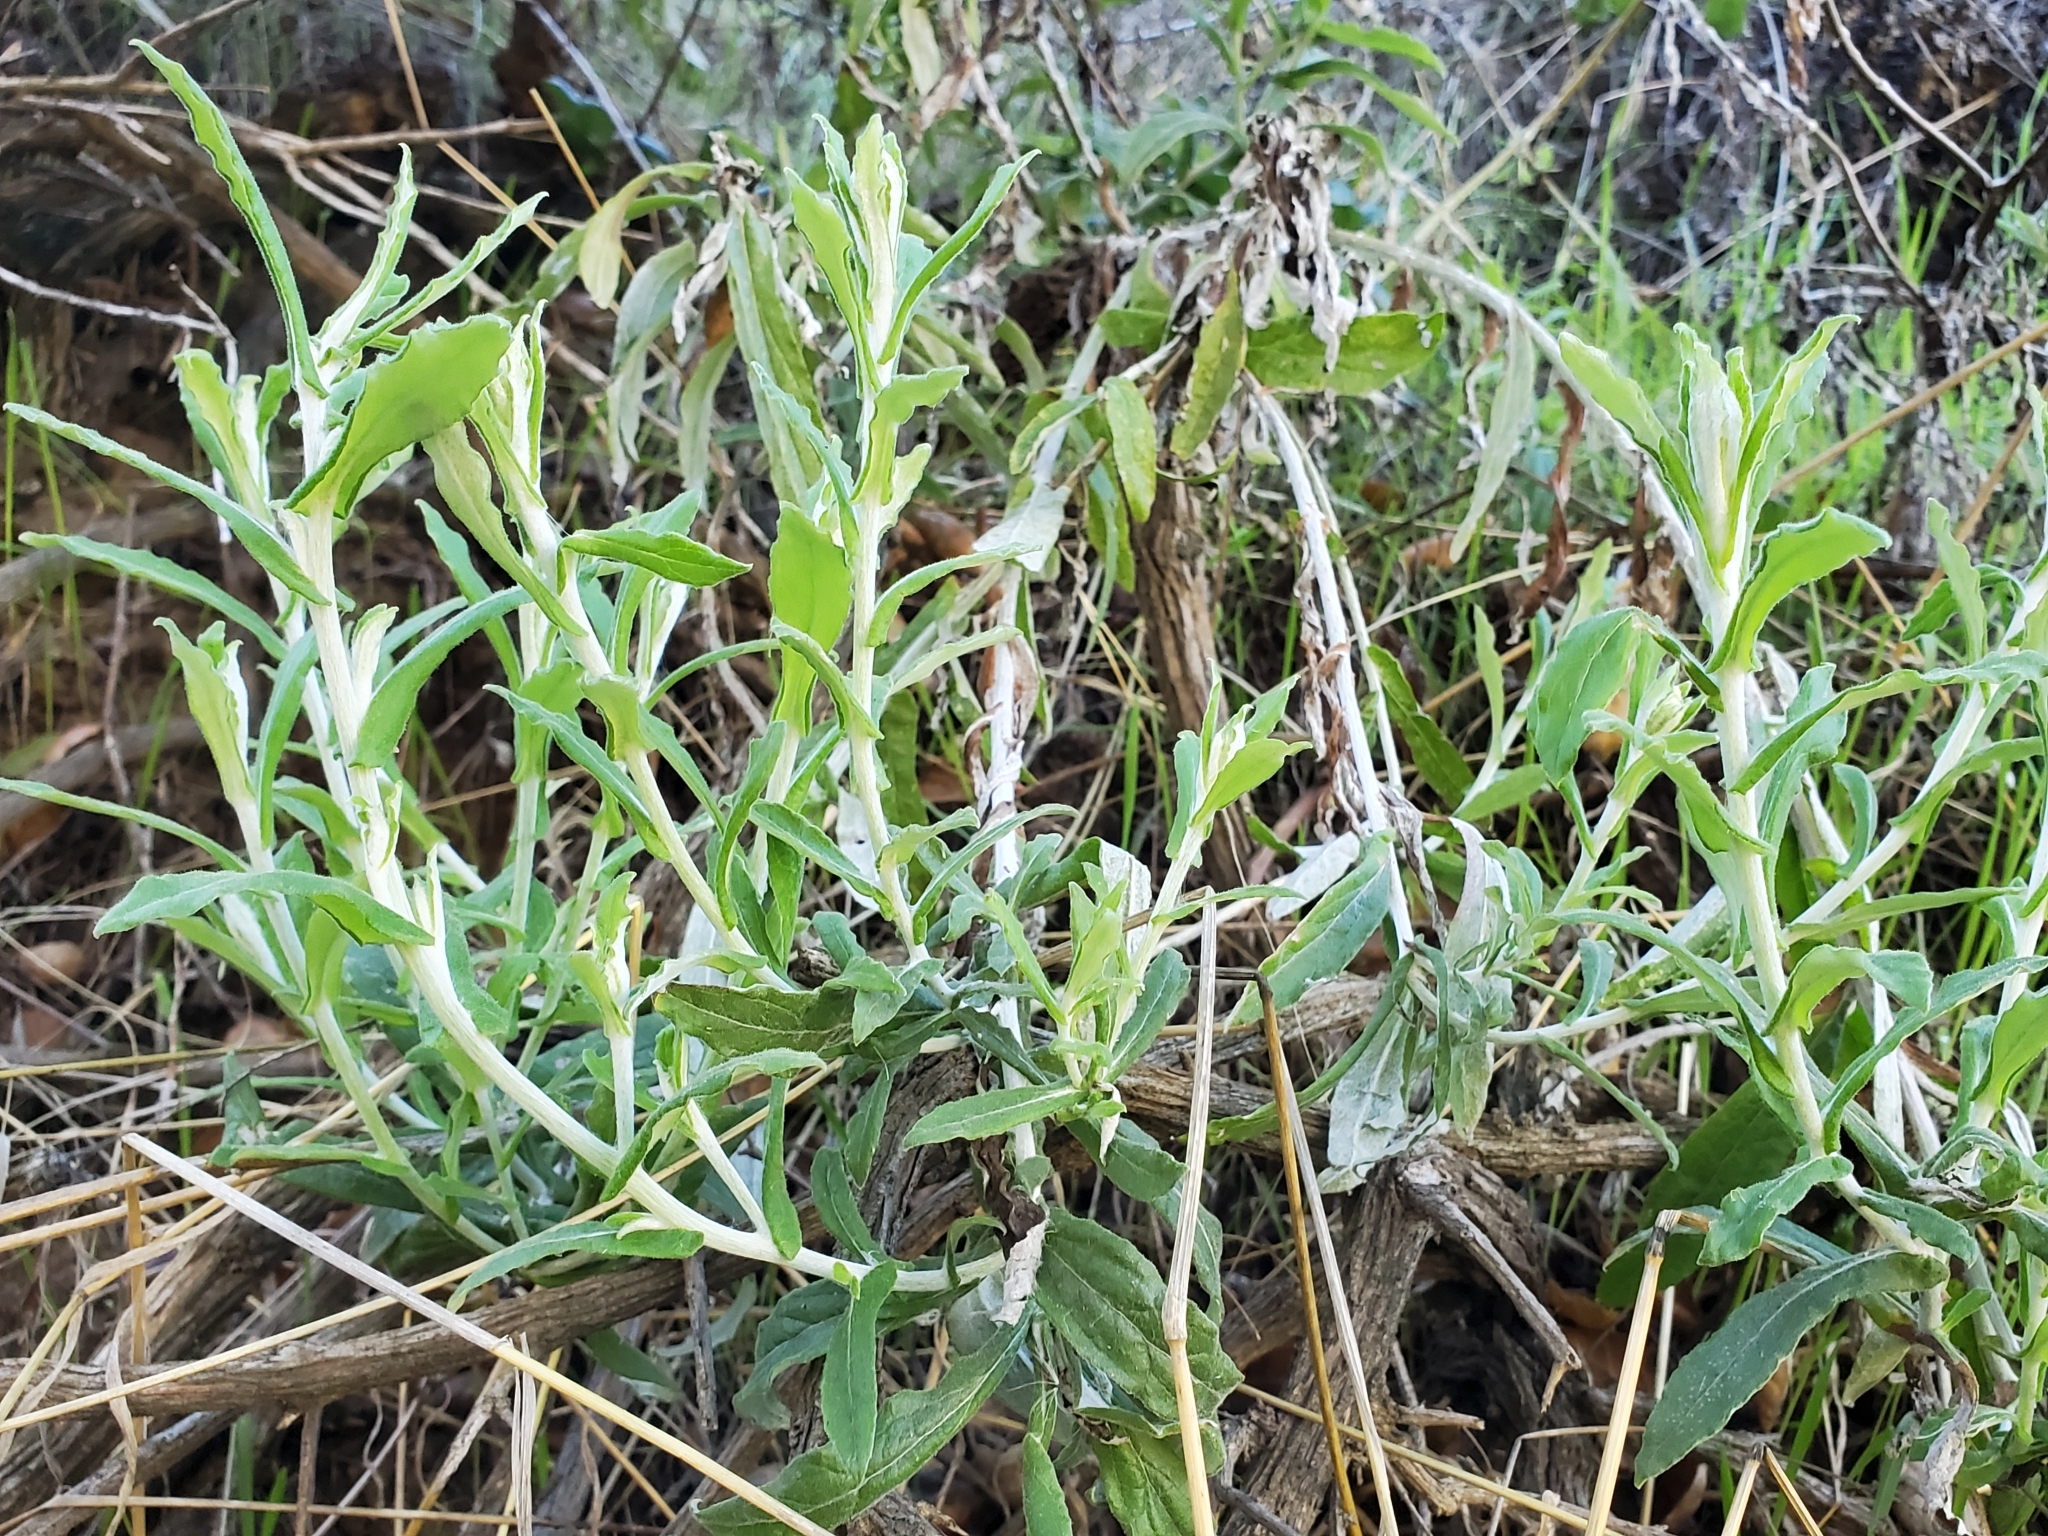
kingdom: Plantae
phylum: Tracheophyta
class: Magnoliopsida
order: Asterales
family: Asteraceae
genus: Pseudognaphalium
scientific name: Pseudognaphalium biolettii
